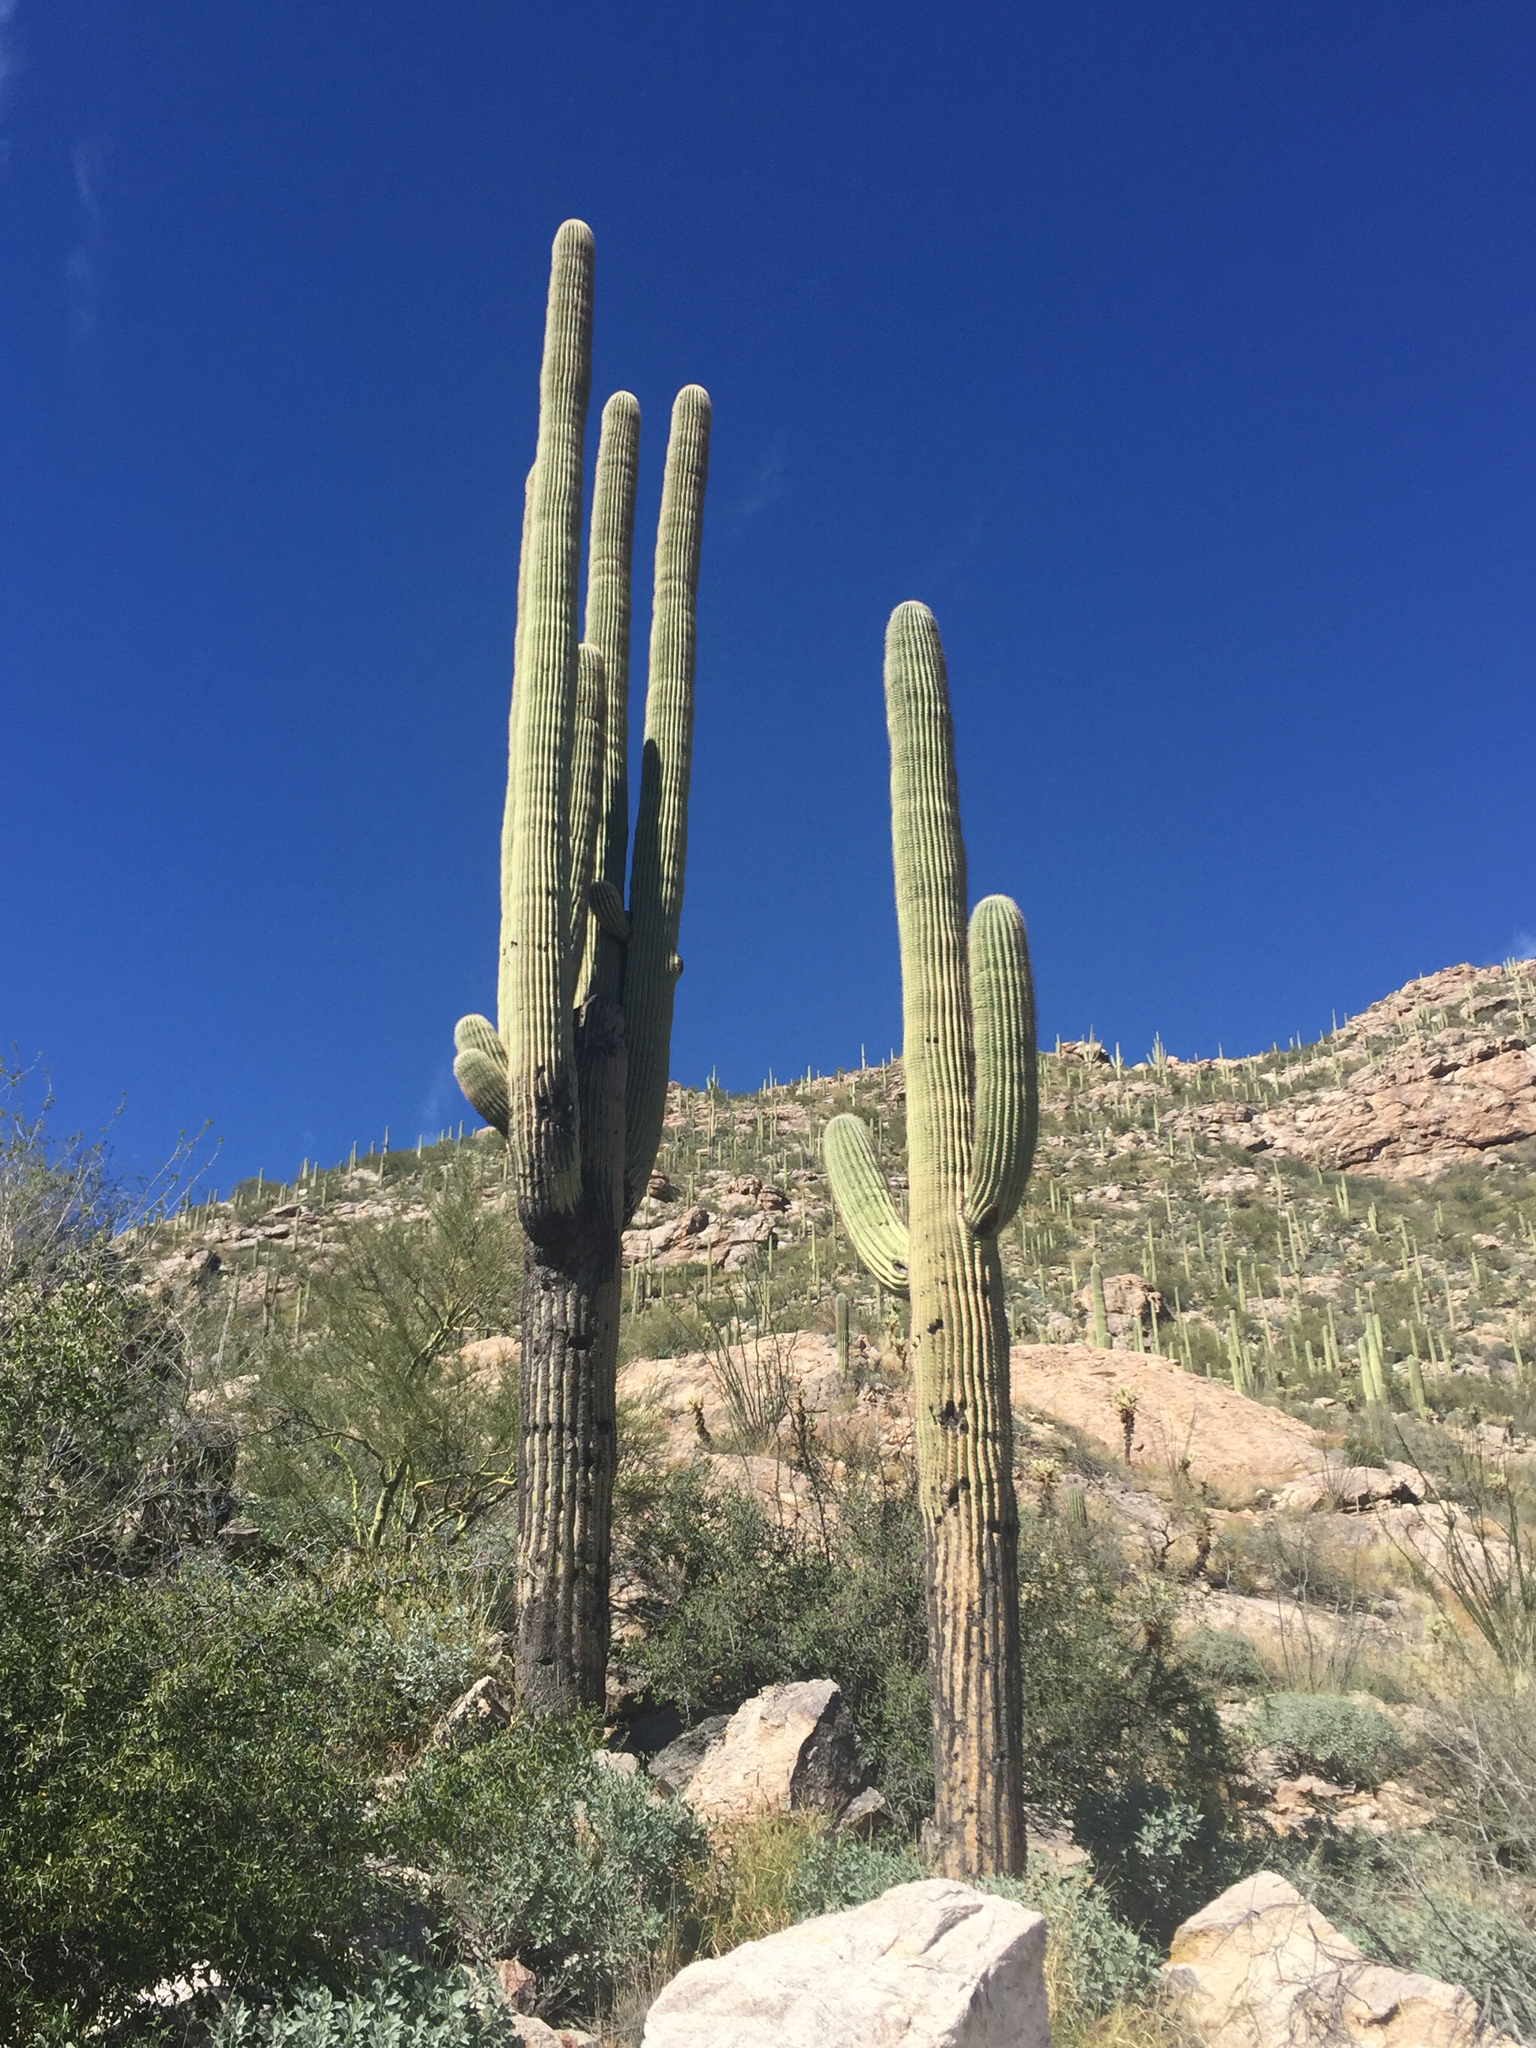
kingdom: Plantae
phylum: Tracheophyta
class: Magnoliopsida
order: Caryophyllales
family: Cactaceae
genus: Carnegiea
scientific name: Carnegiea gigantea
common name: Saguaro
